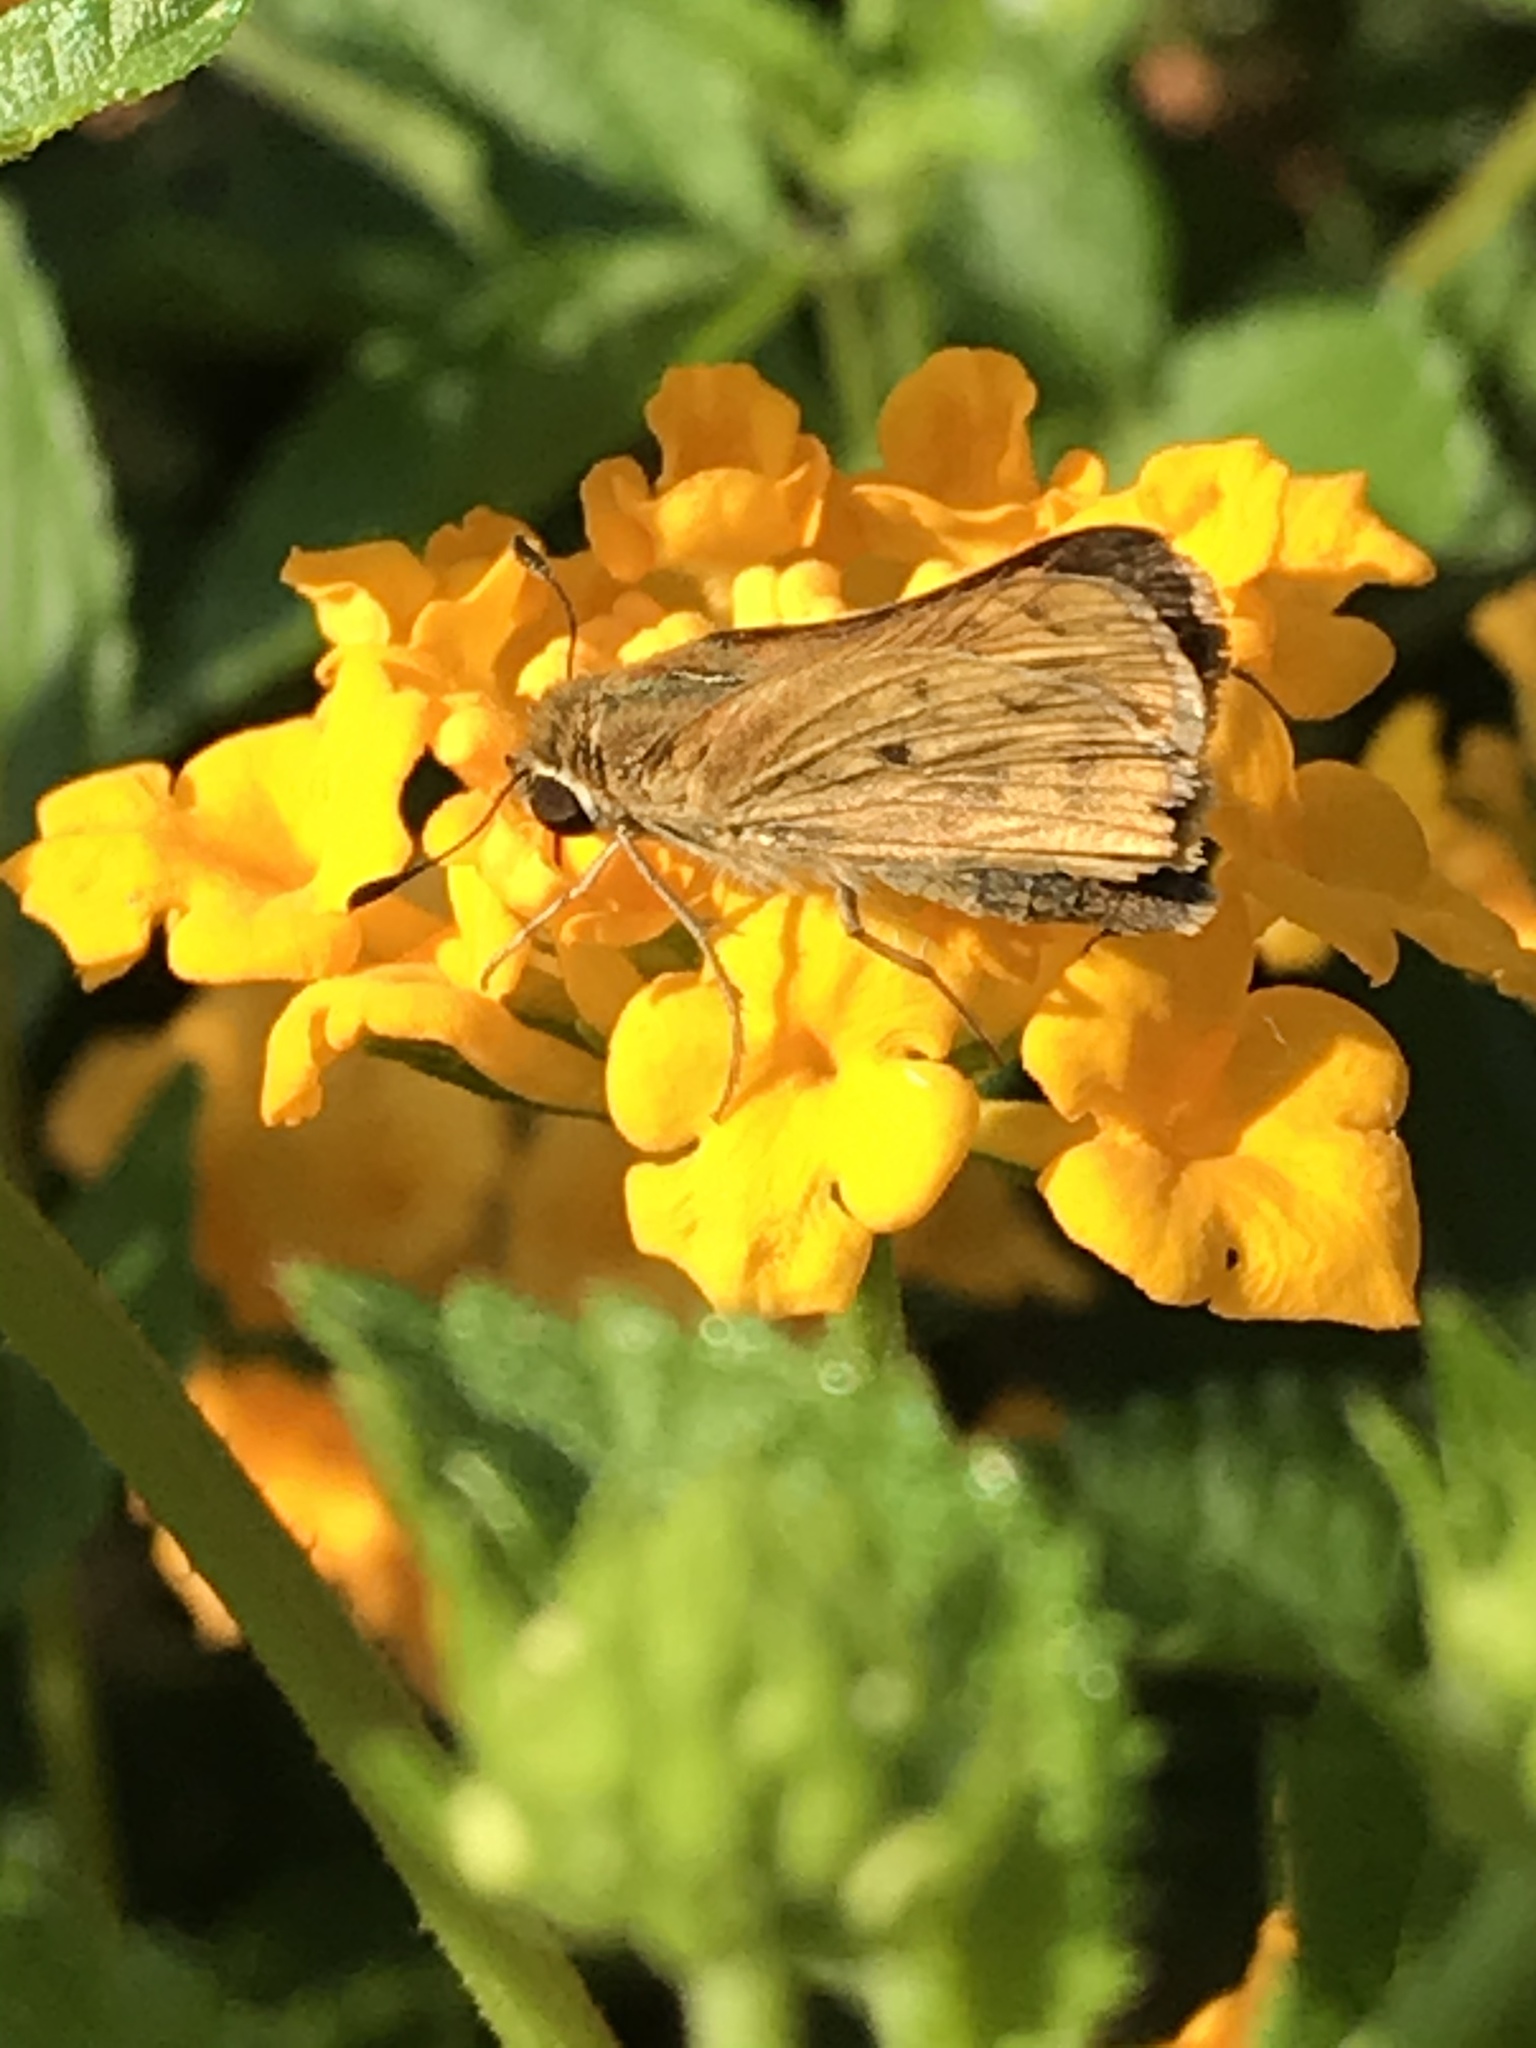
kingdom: Animalia
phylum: Arthropoda
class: Insecta
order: Lepidoptera
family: Hesperiidae
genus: Hylephila
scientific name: Hylephila phyleus
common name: Fiery skipper
